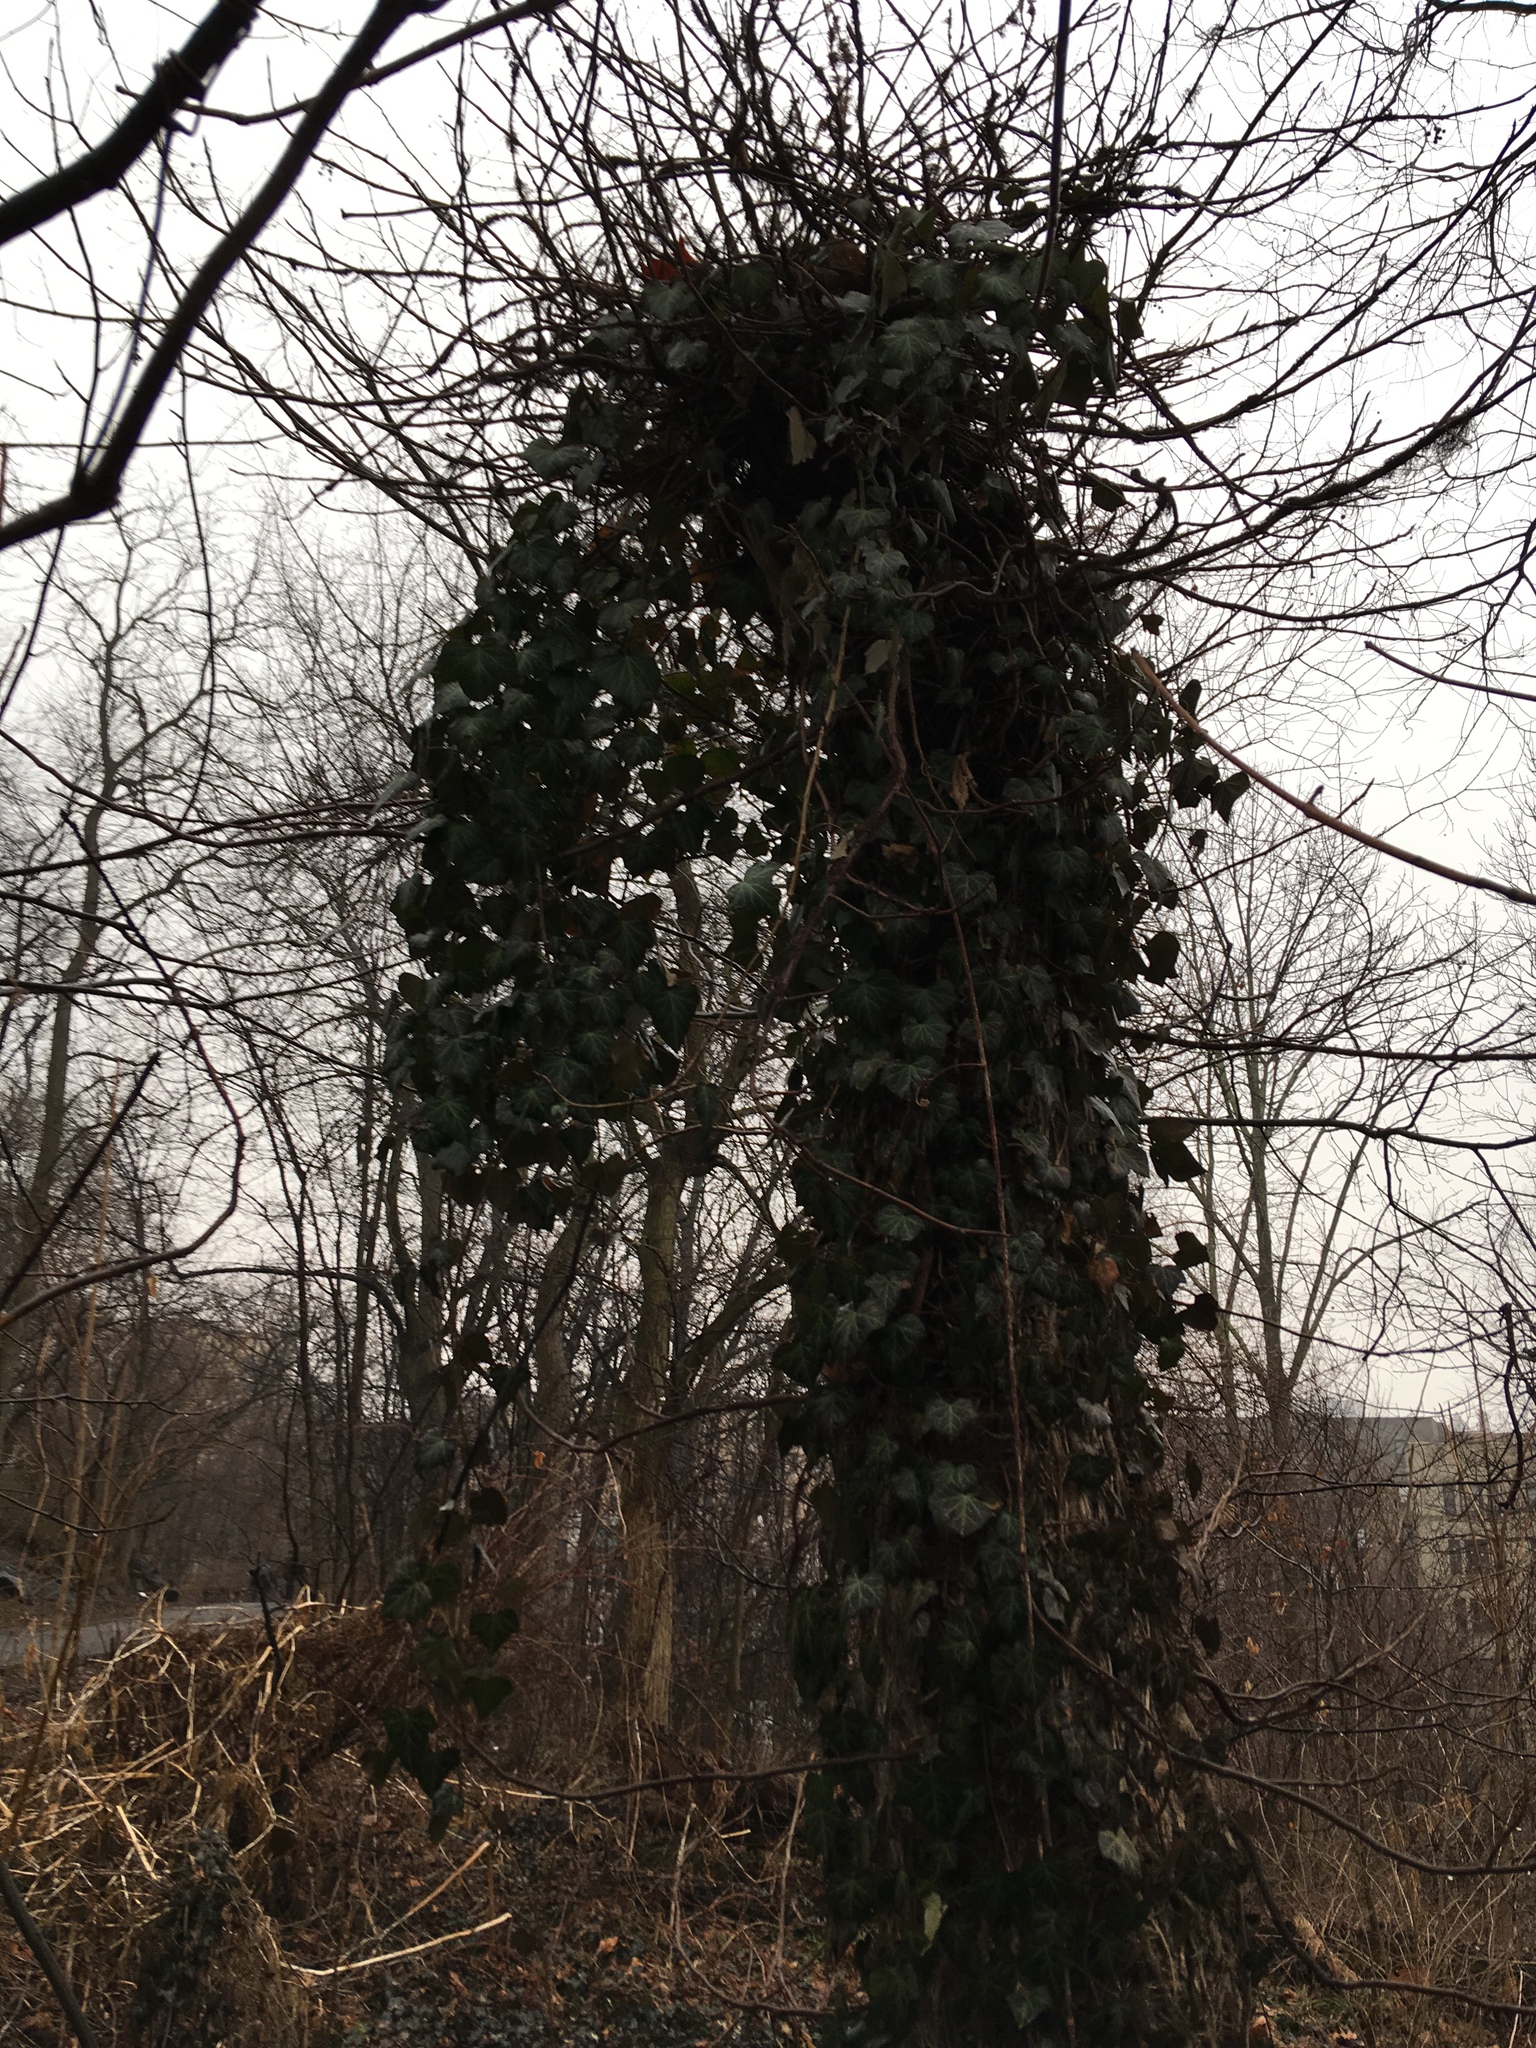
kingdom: Plantae
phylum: Tracheophyta
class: Magnoliopsida
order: Apiales
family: Araliaceae
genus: Hedera
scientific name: Hedera helix
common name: Ivy
